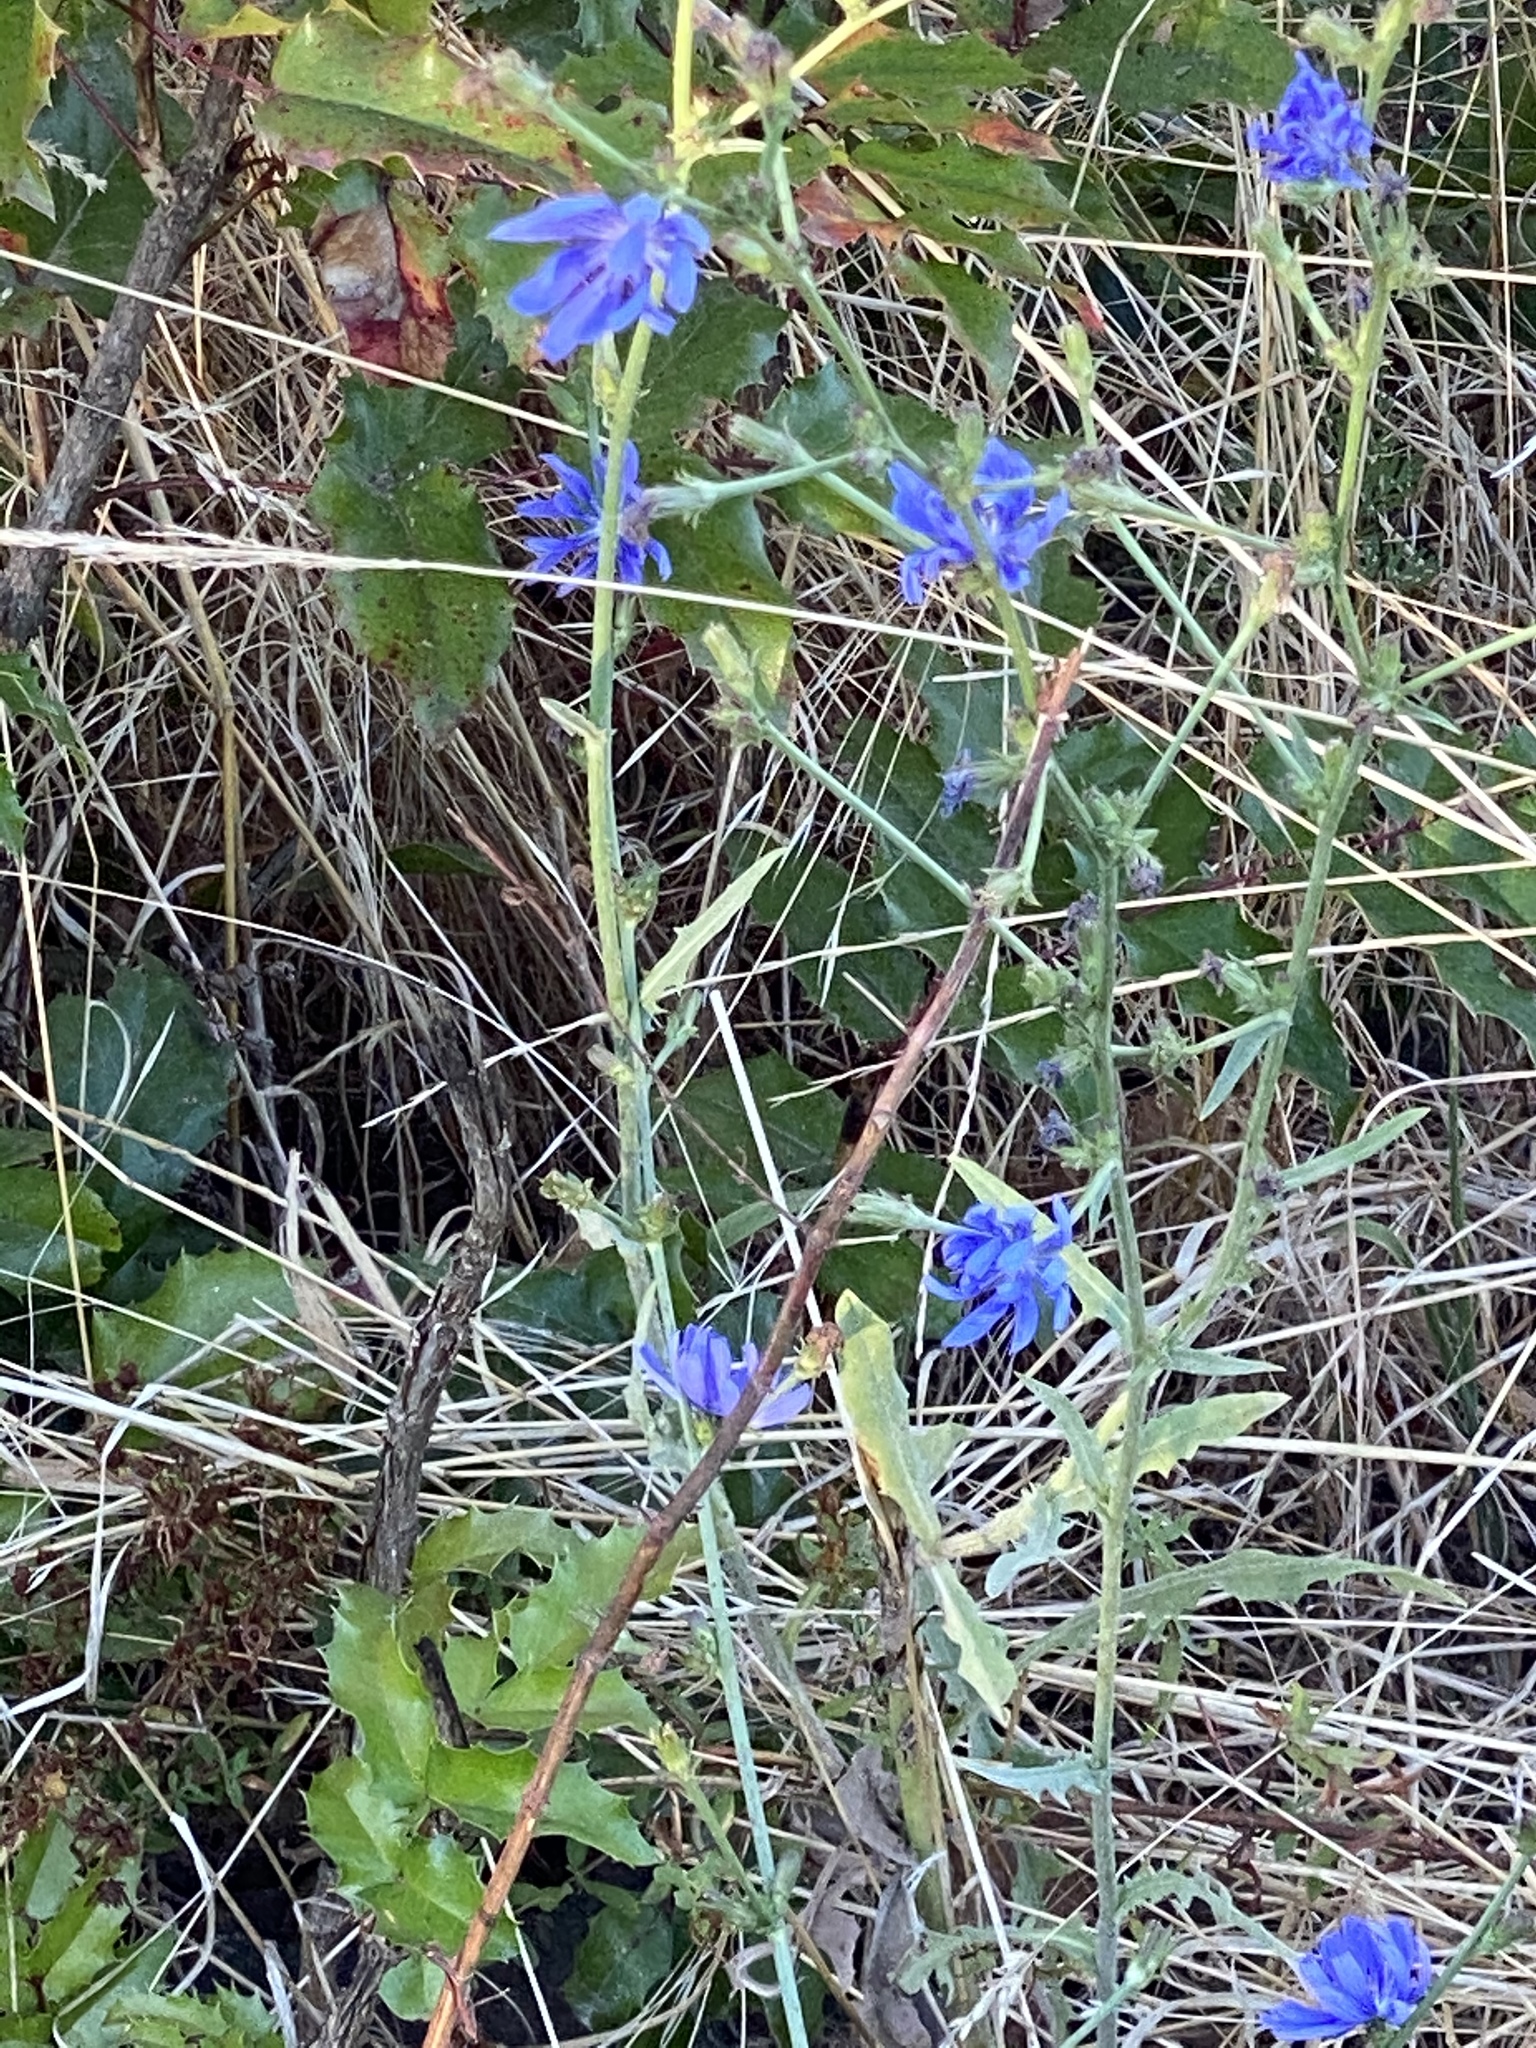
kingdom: Plantae
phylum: Tracheophyta
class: Magnoliopsida
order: Asterales
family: Asteraceae
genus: Cichorium
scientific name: Cichorium intybus
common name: Chicory
